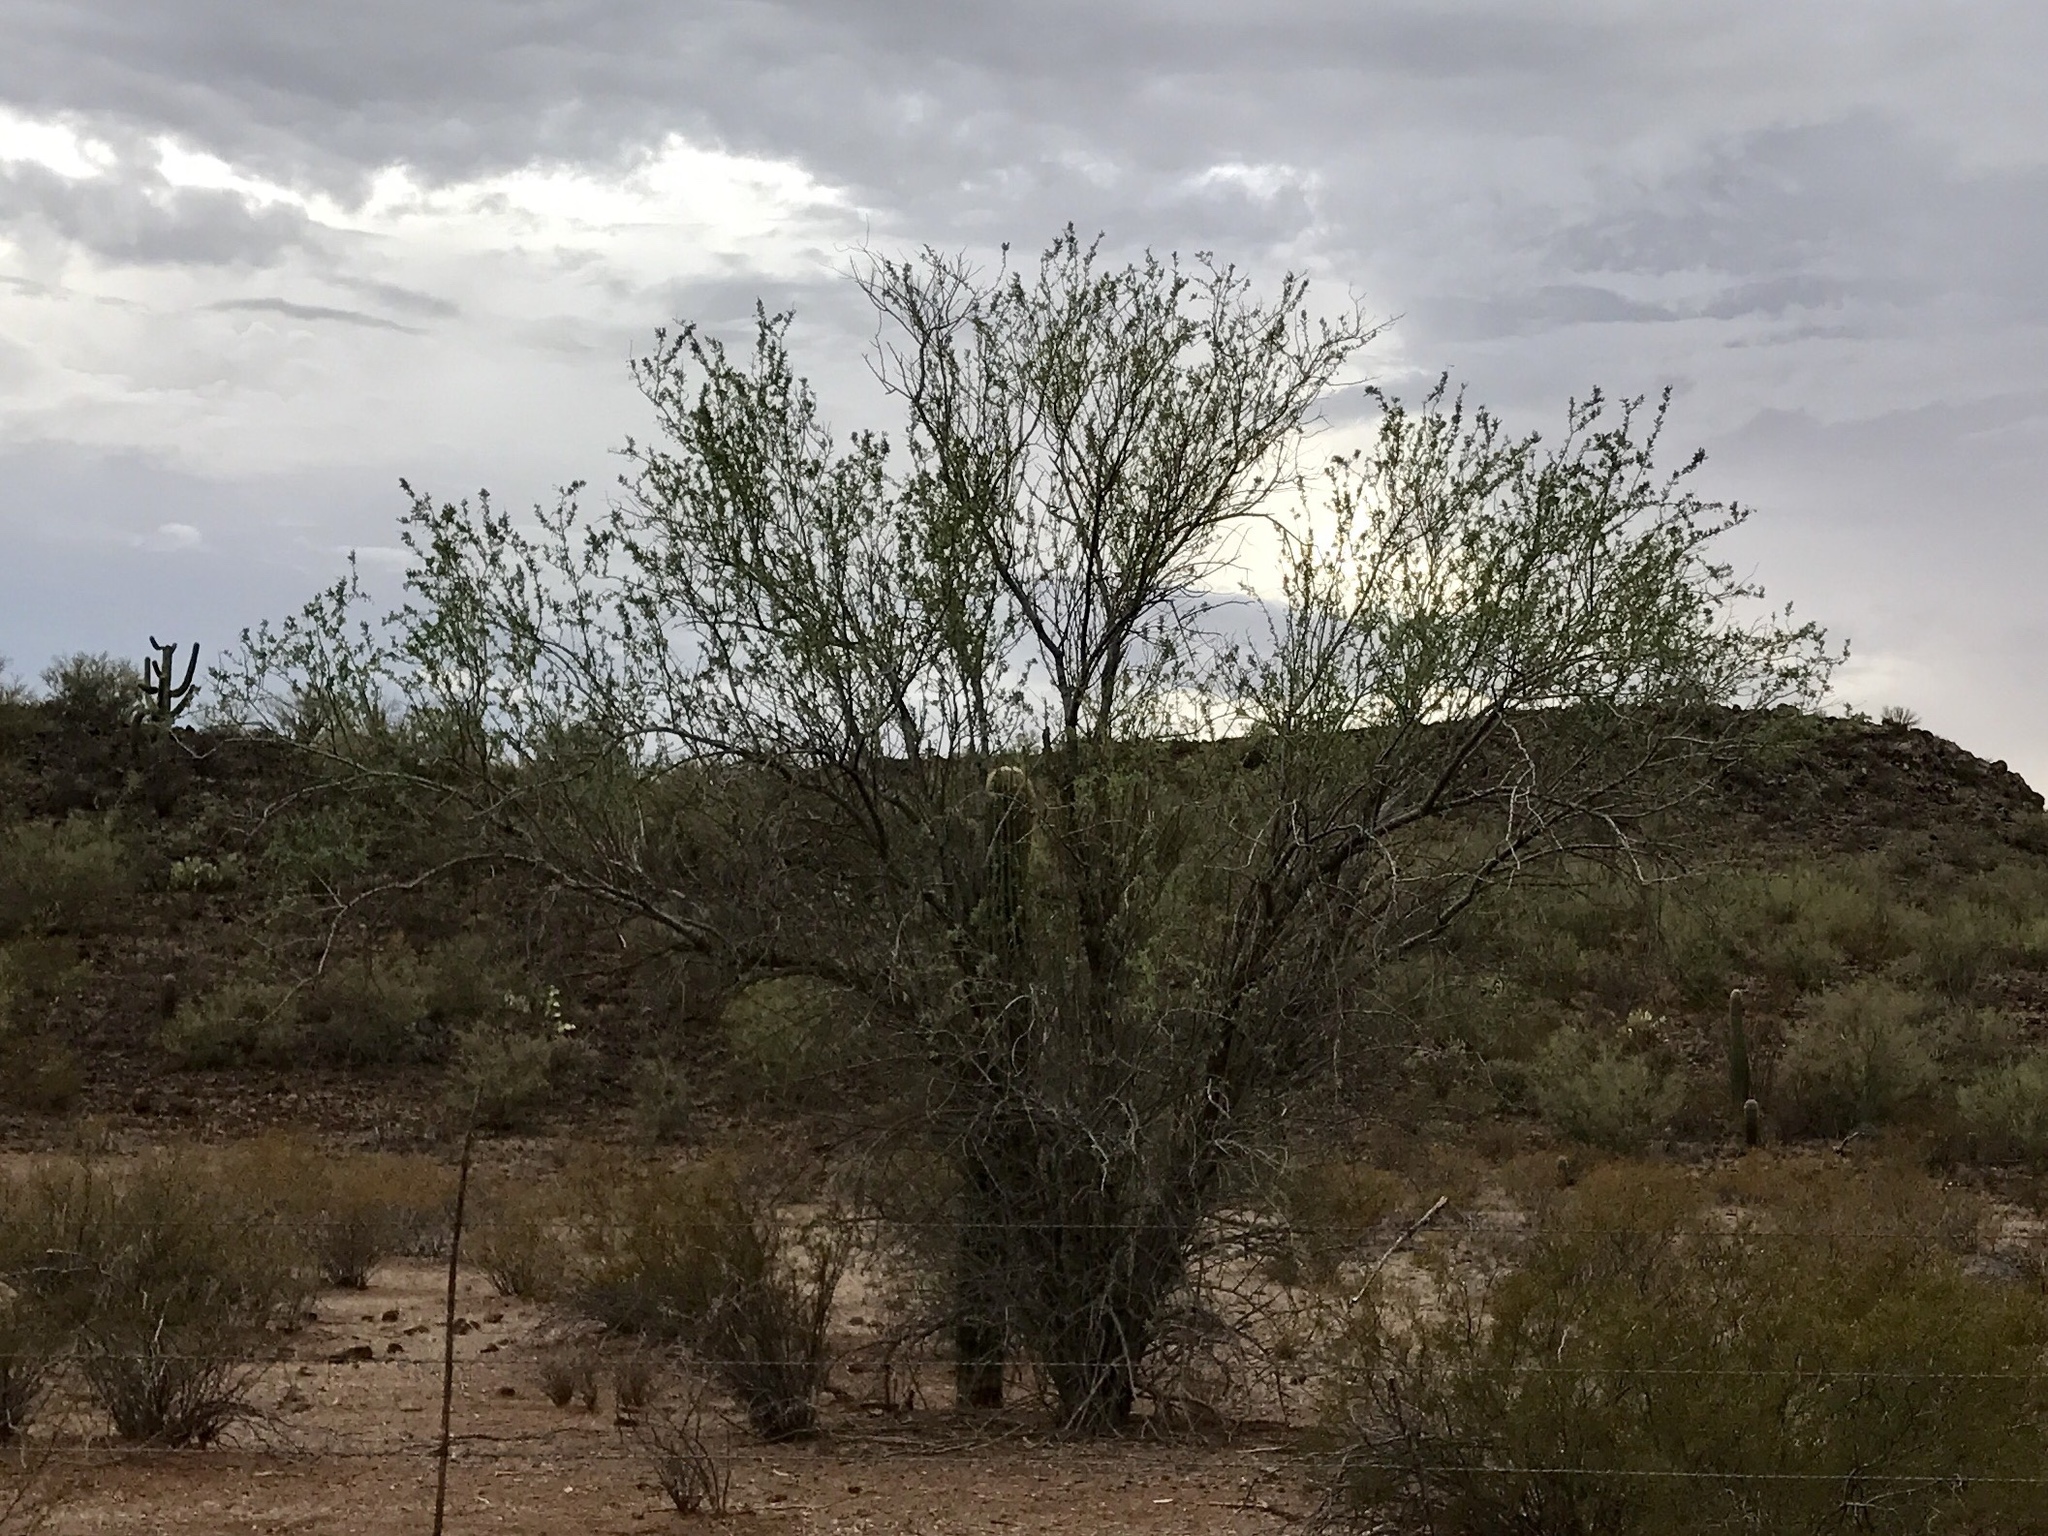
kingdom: Plantae
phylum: Tracheophyta
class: Magnoliopsida
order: Fabales
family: Fabaceae
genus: Olneya
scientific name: Olneya tesota
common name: Desert ironwood
